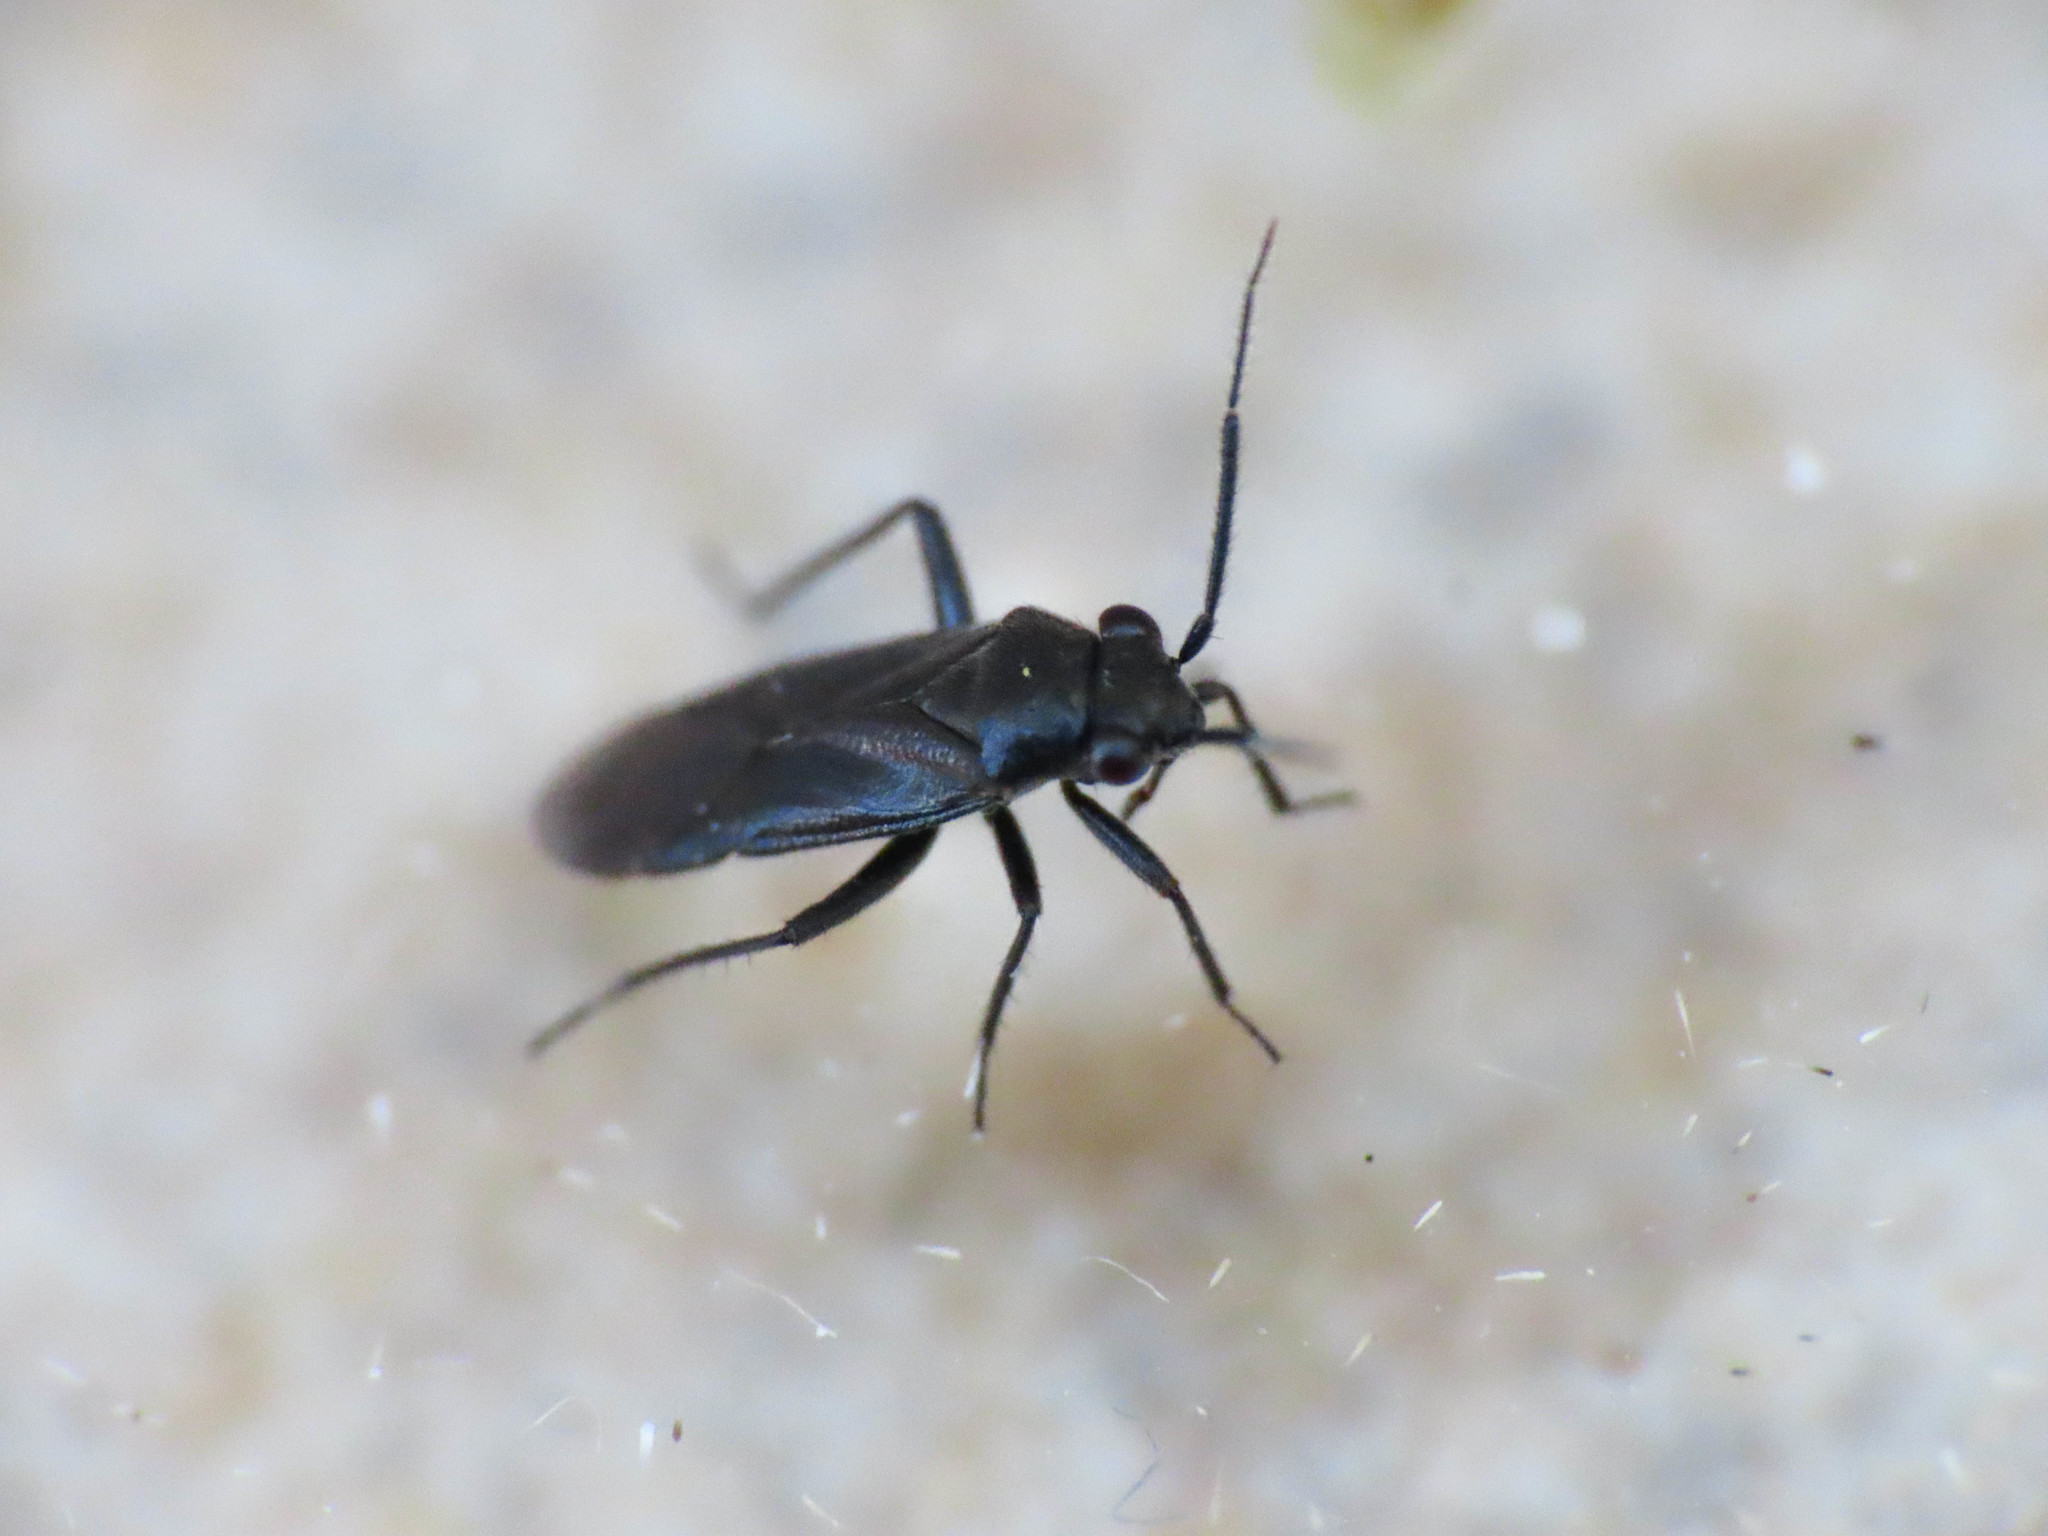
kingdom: Animalia
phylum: Arthropoda
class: Insecta
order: Hemiptera
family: Miridae
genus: Pachytomella
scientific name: Pachytomella passerinii
